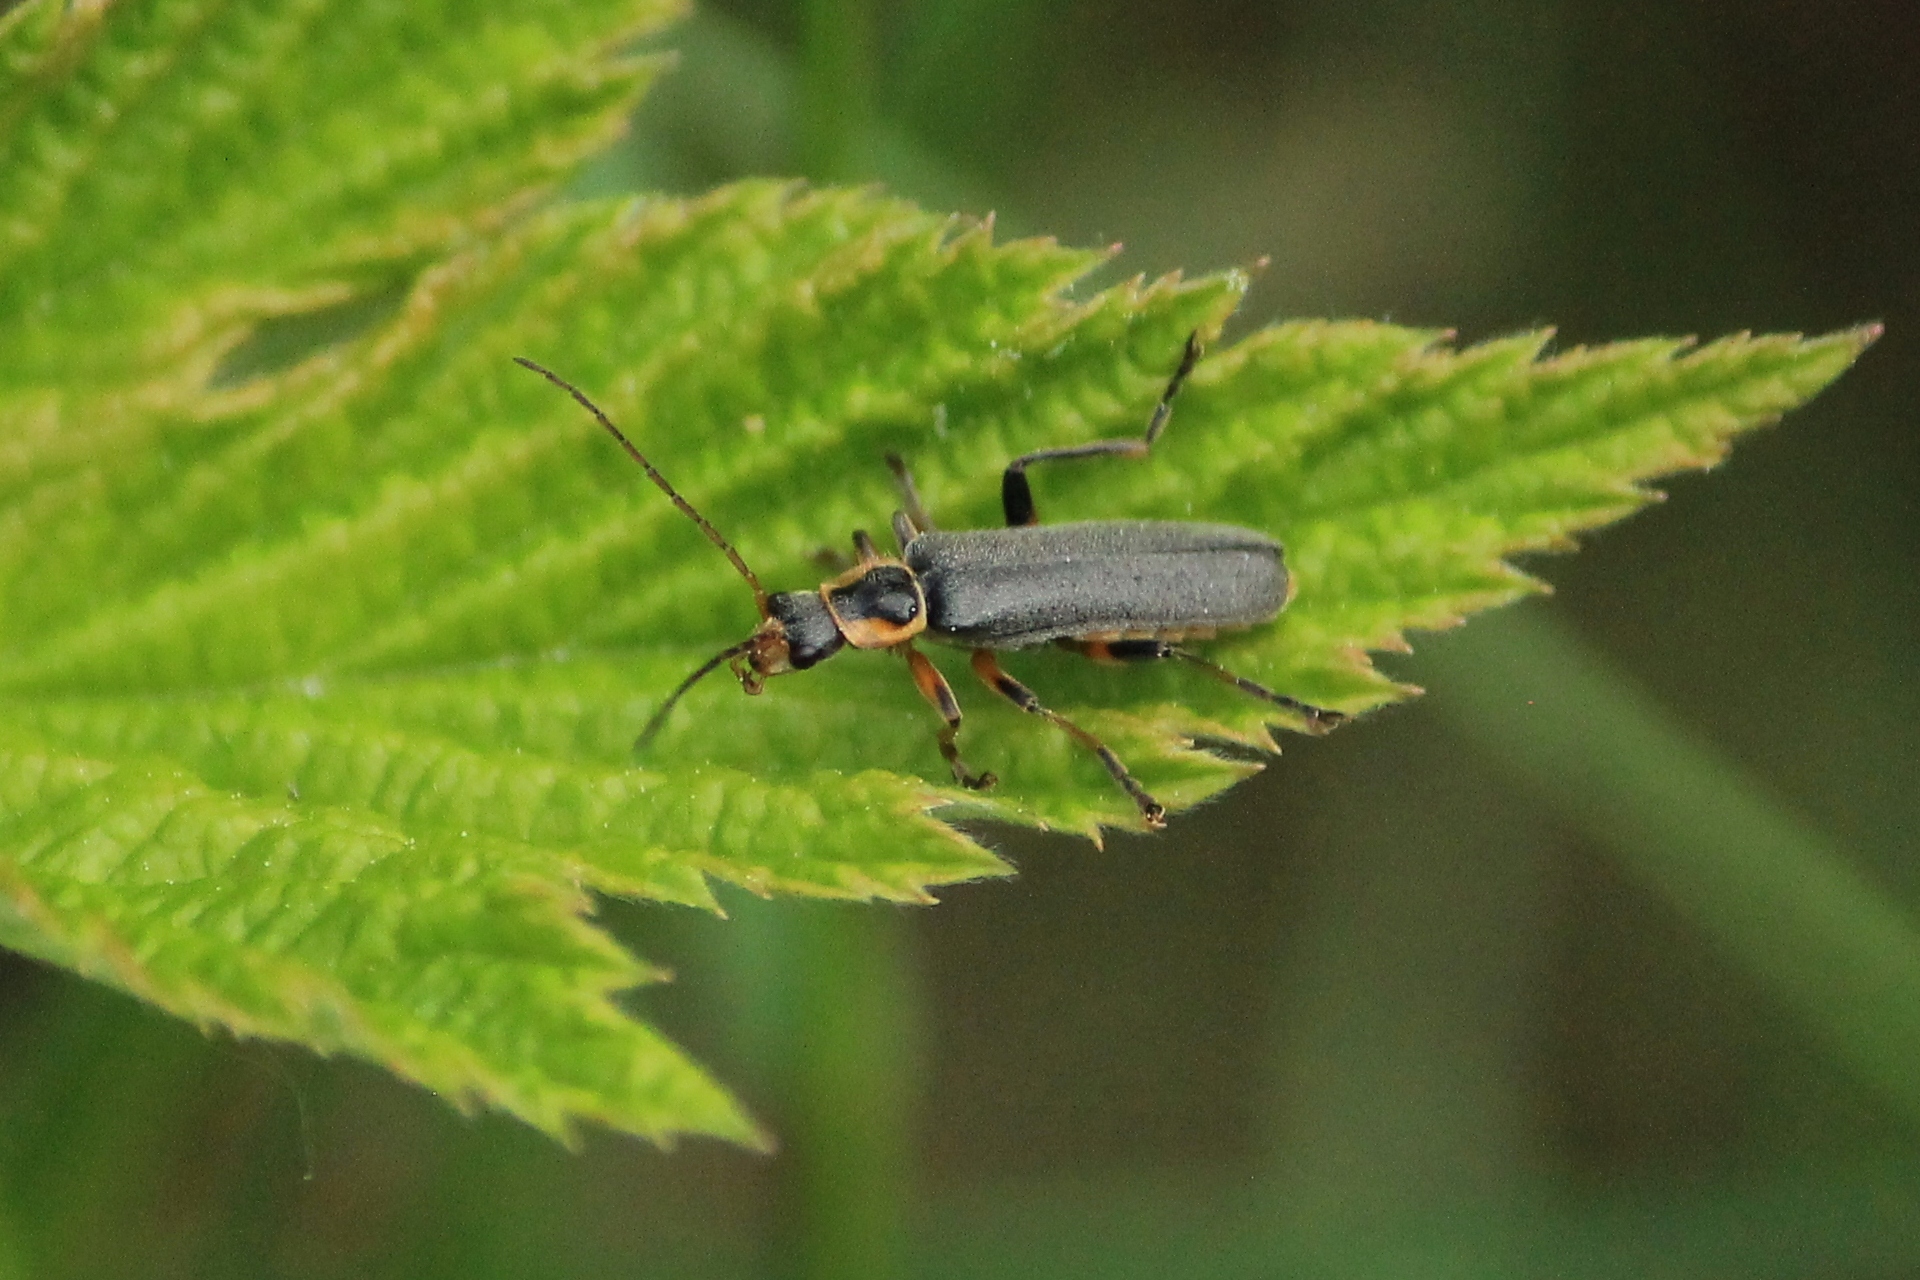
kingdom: Animalia
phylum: Arthropoda
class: Insecta
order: Coleoptera
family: Cantharidae
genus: Cantharis
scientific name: Cantharis nigricans
